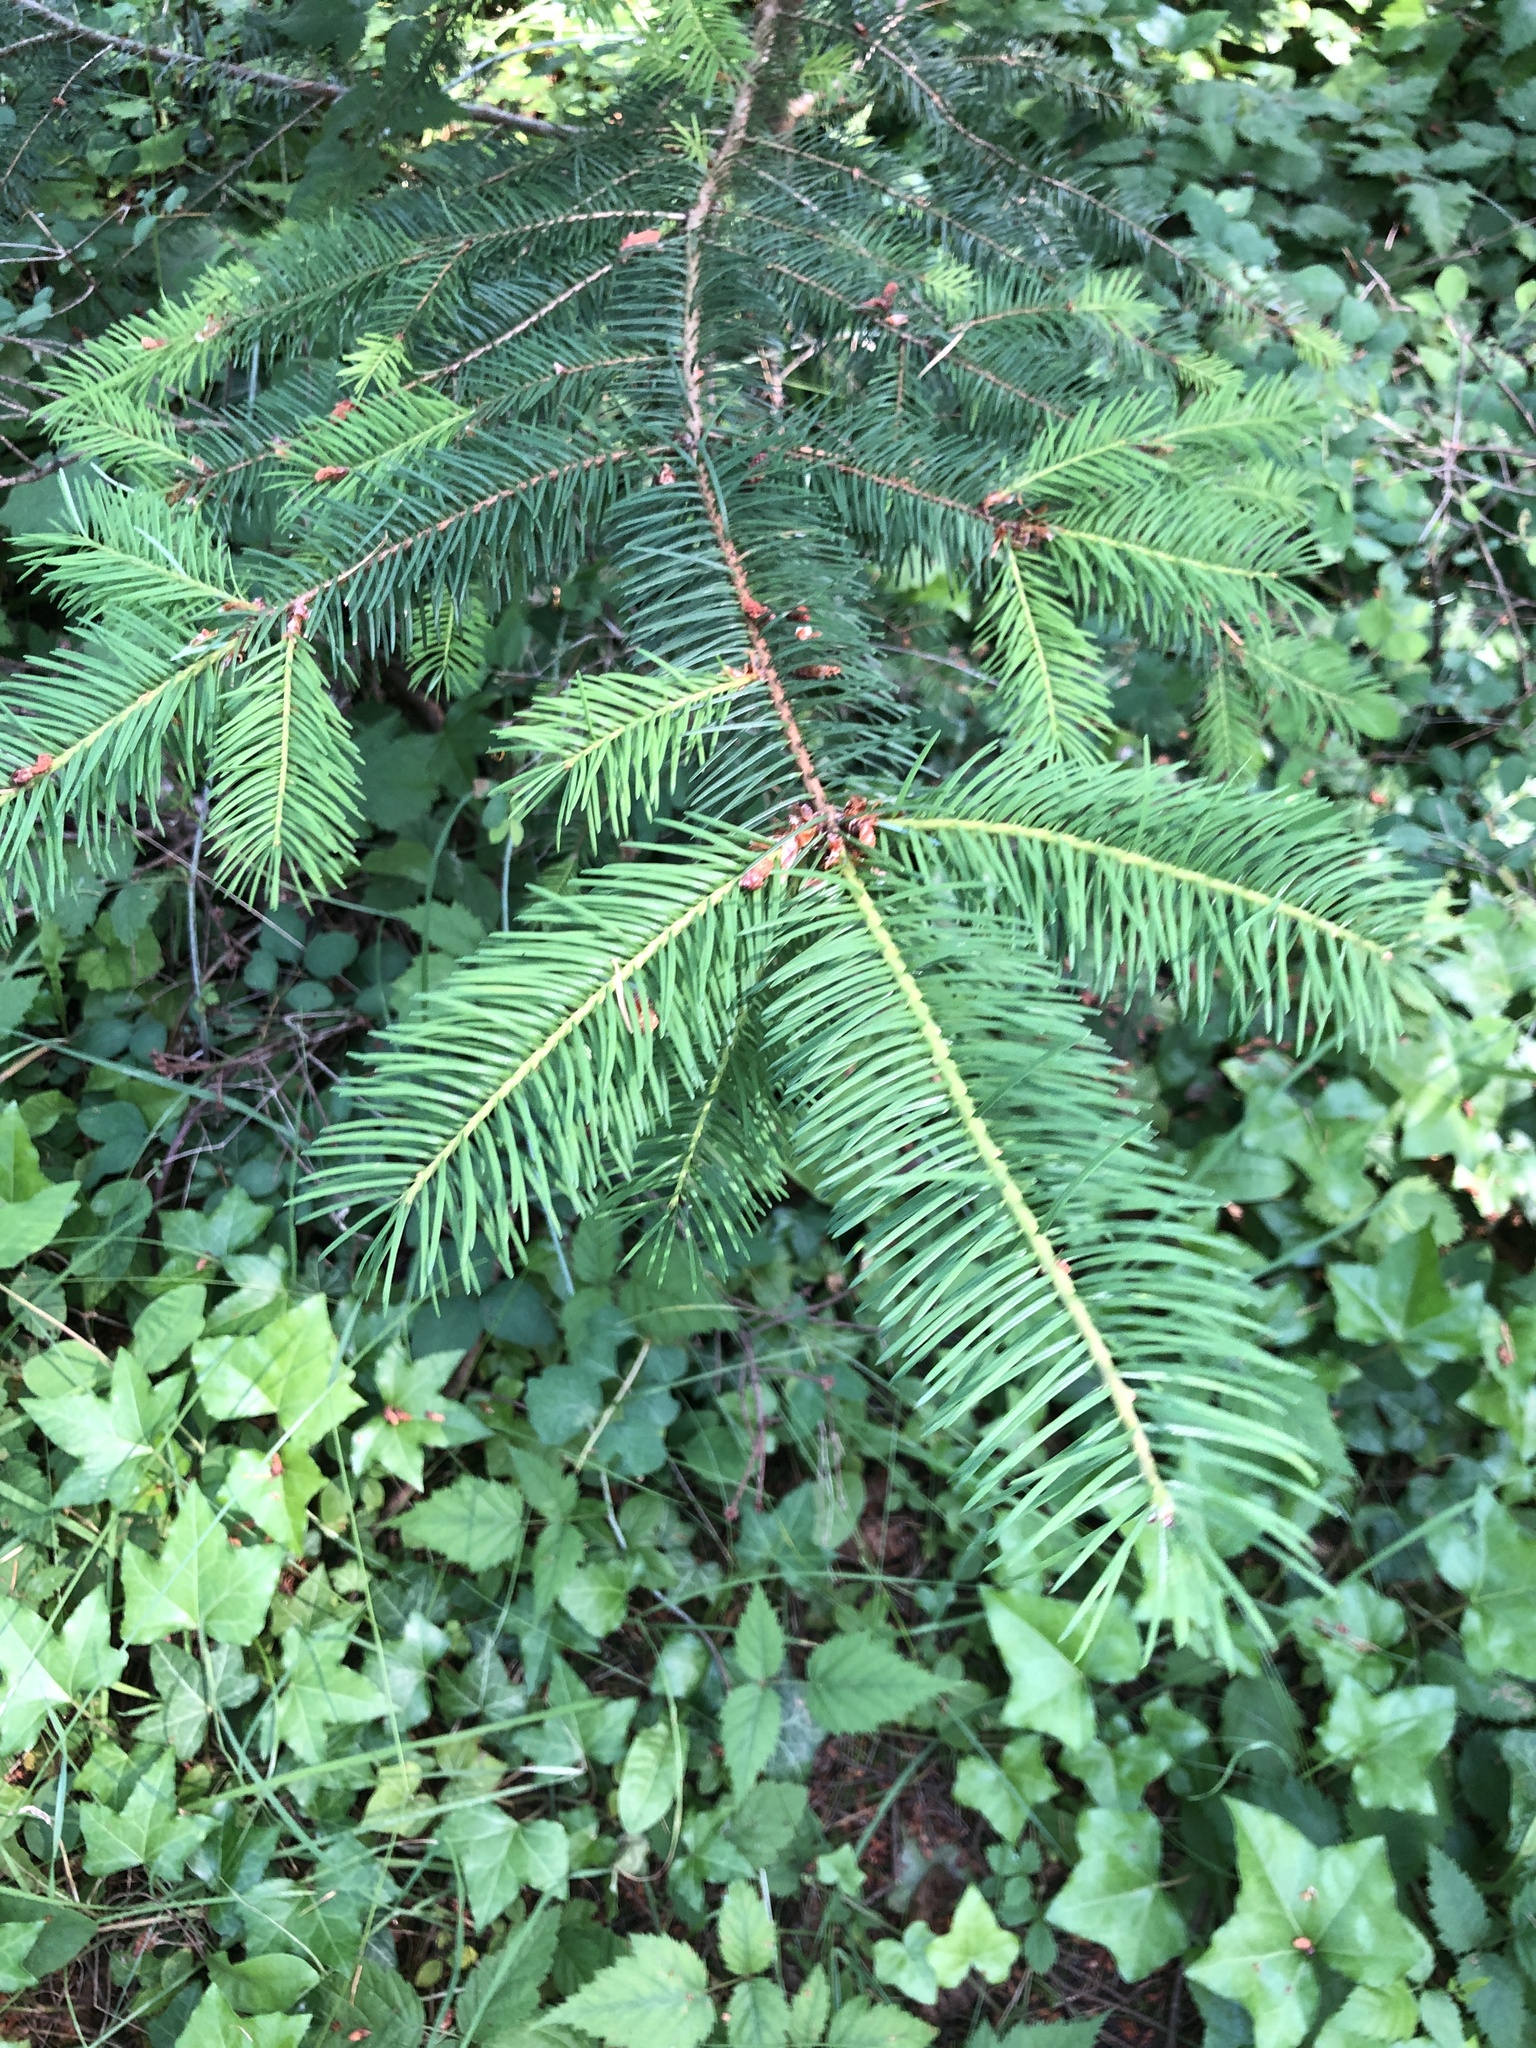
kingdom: Plantae
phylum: Tracheophyta
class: Pinopsida
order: Pinales
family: Pinaceae
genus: Pseudotsuga
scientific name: Pseudotsuga menziesii
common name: Douglas fir
